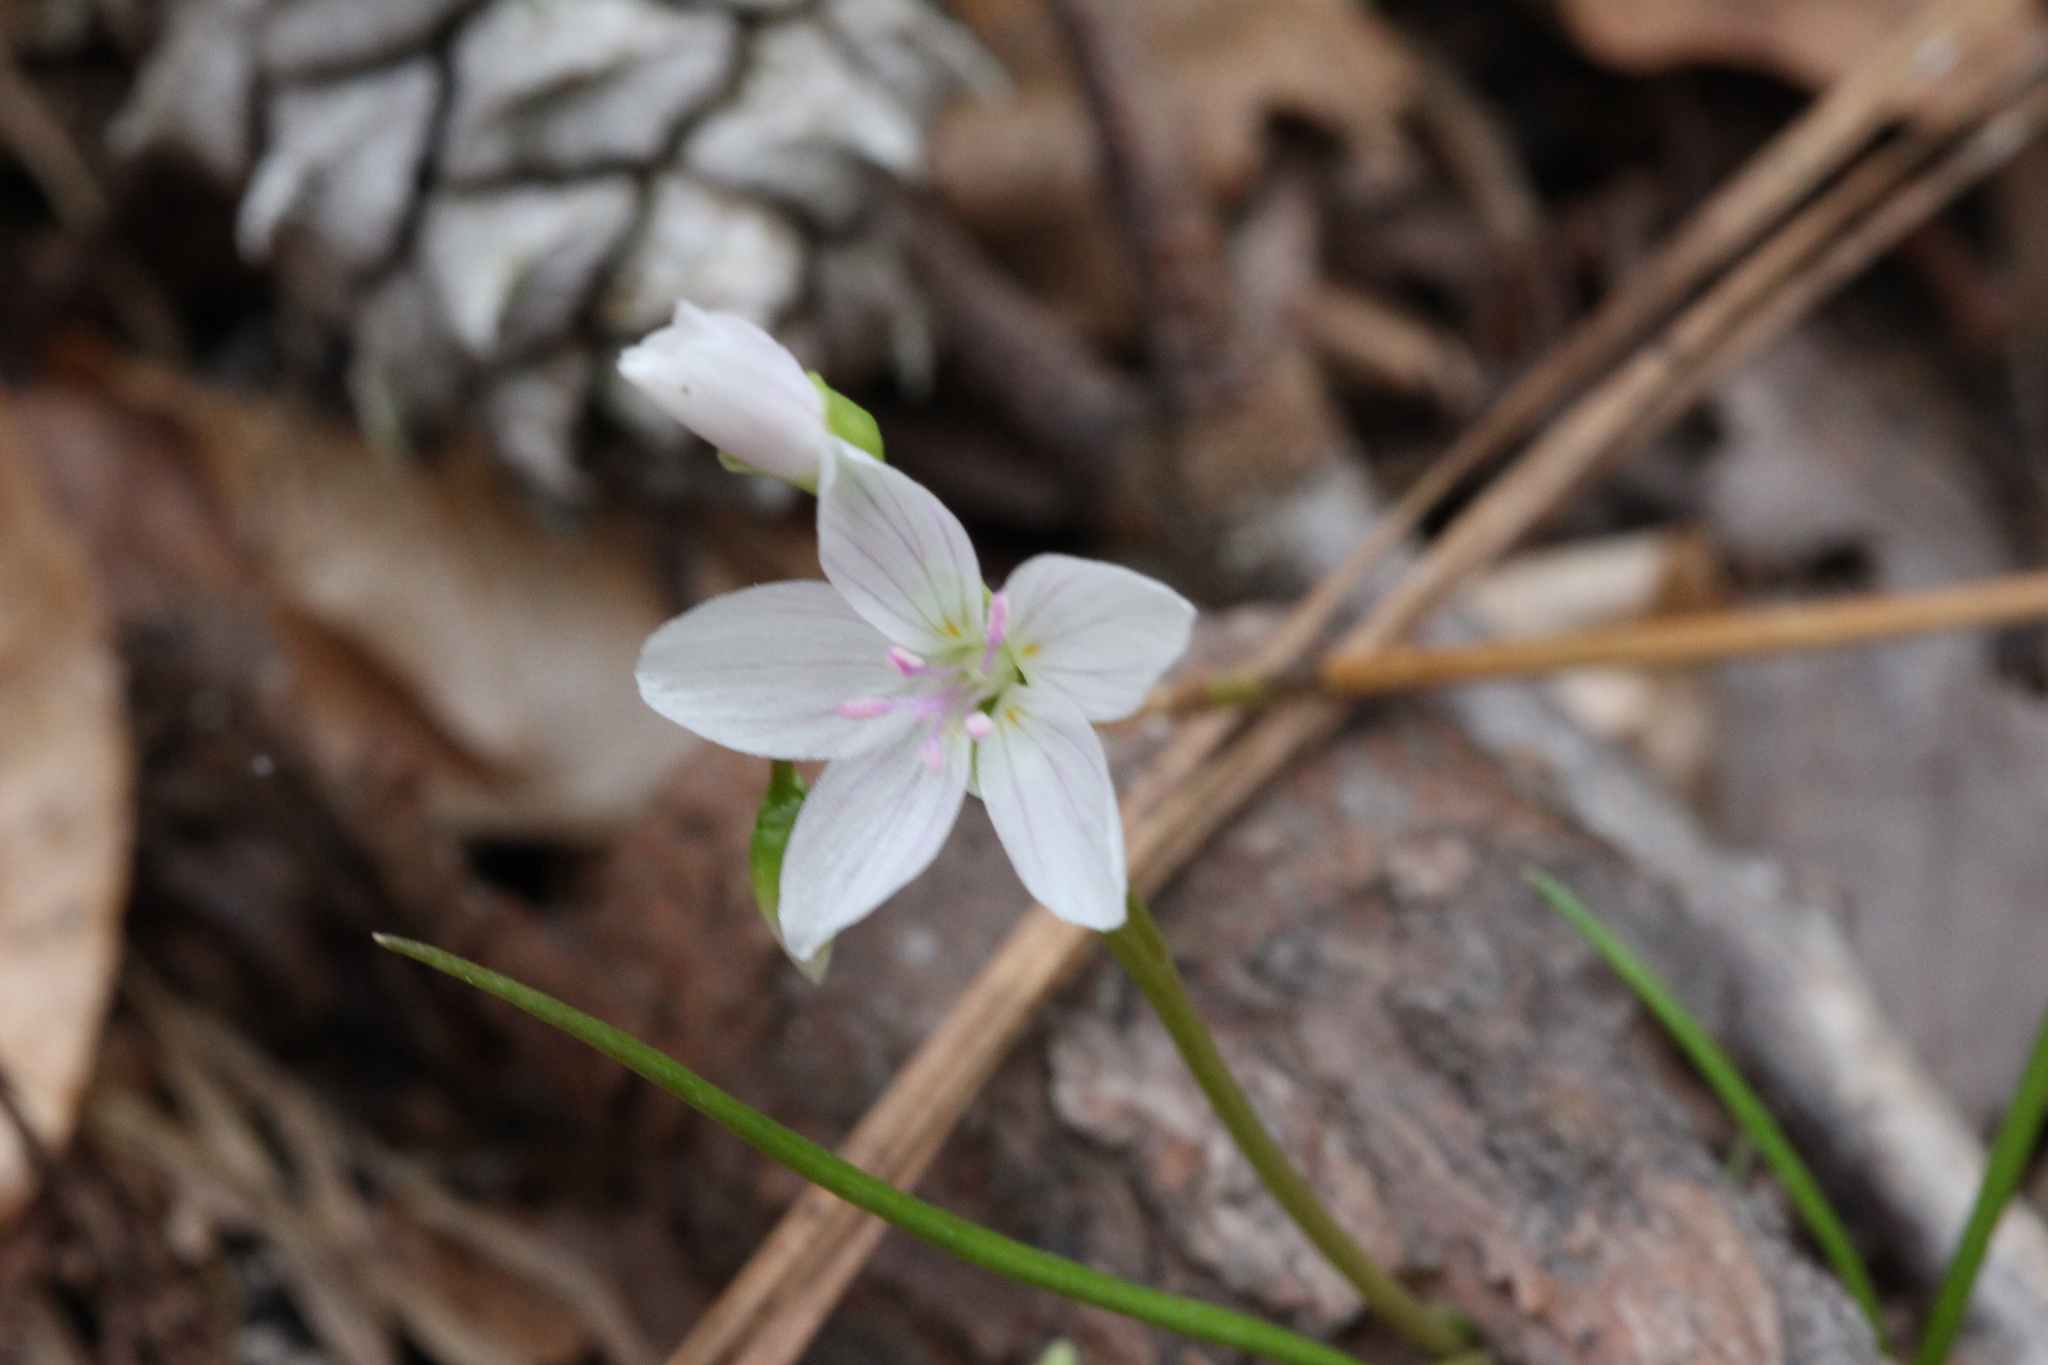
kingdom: Plantae
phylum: Tracheophyta
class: Magnoliopsida
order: Caryophyllales
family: Montiaceae
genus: Claytonia
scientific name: Claytonia virginica
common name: Virginia springbeauty
